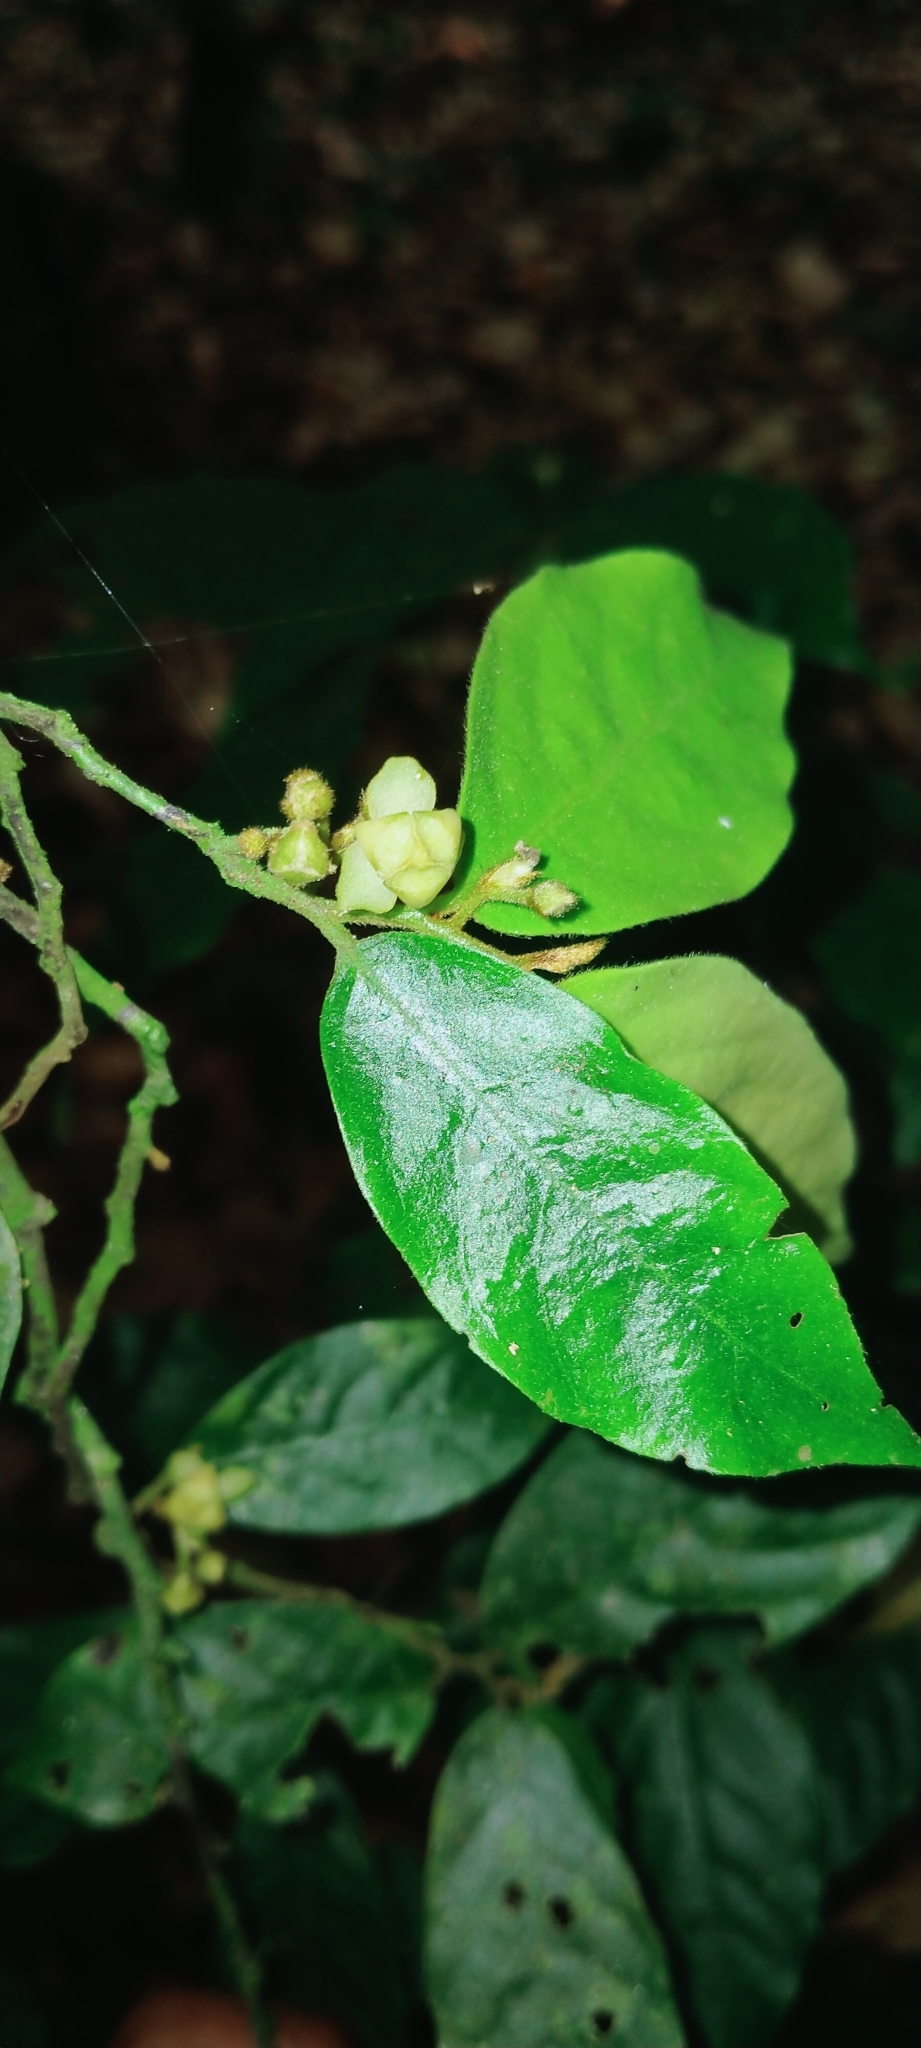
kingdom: Plantae
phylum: Tracheophyta
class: Magnoliopsida
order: Magnoliales
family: Annonaceae
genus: Orophea
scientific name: Orophea erythrocarpa
